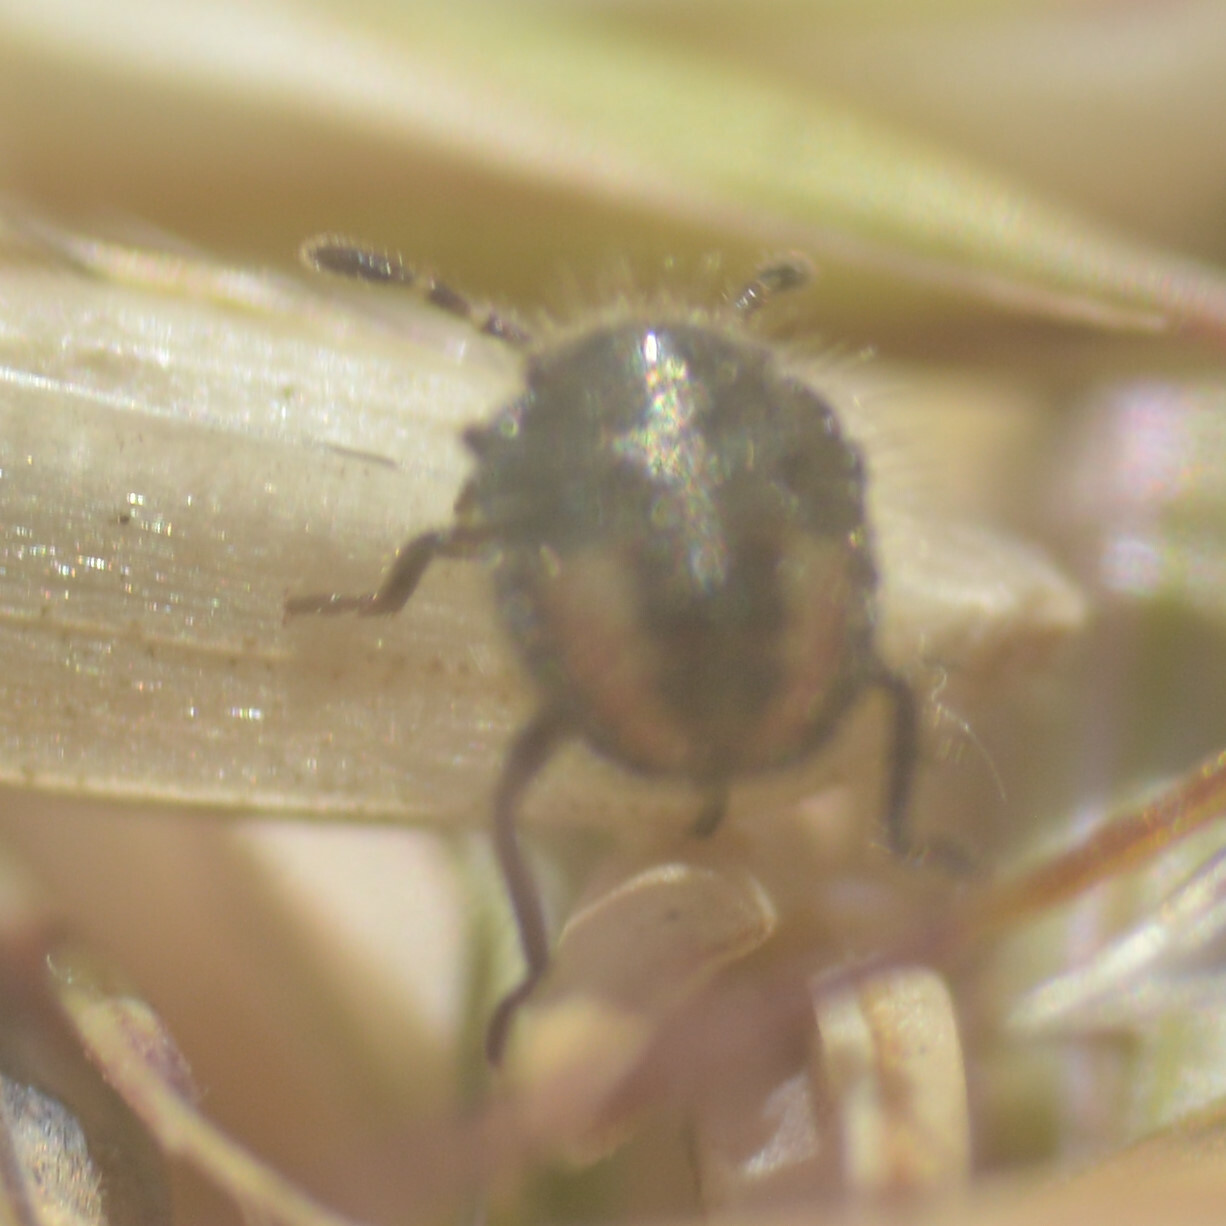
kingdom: Animalia
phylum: Arthropoda
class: Insecta
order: Hemiptera
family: Pentatomidae
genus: Dolycoris
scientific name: Dolycoris baccarum
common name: Sloe bug
